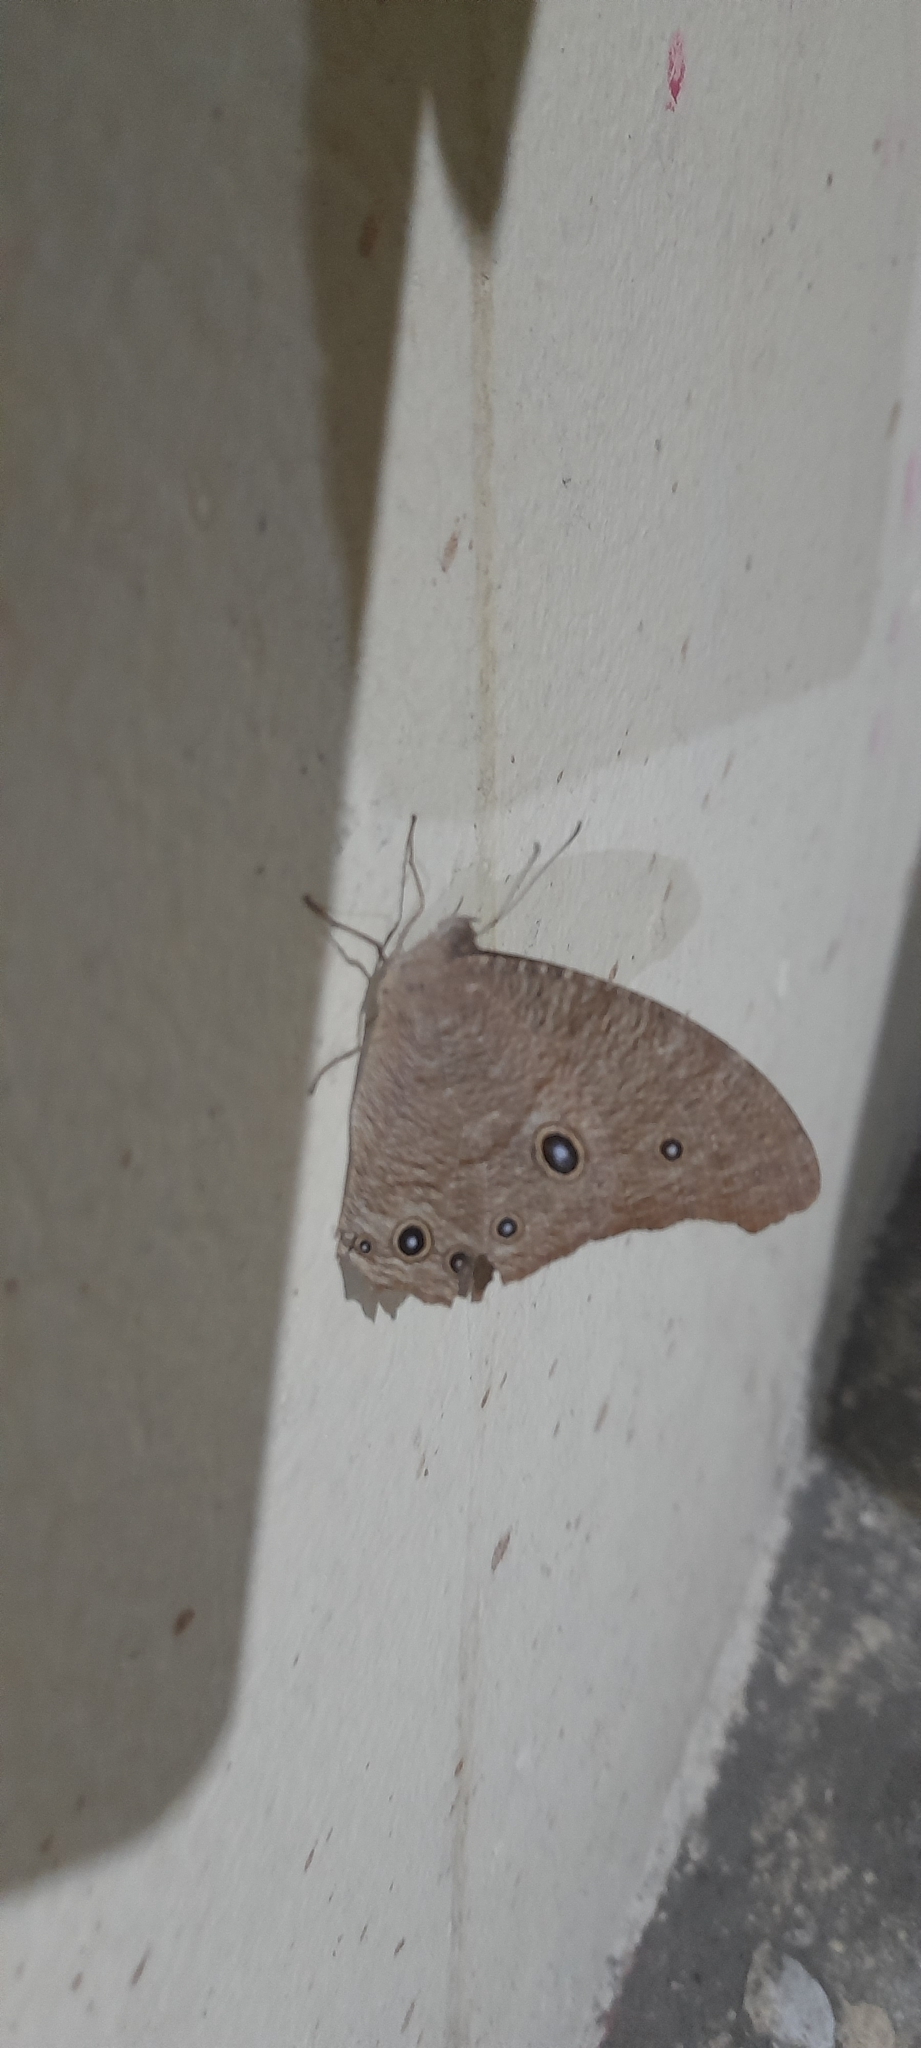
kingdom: Animalia
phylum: Arthropoda
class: Insecta
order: Lepidoptera
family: Nymphalidae
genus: Melanitis
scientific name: Melanitis leda
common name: Twilight brown
